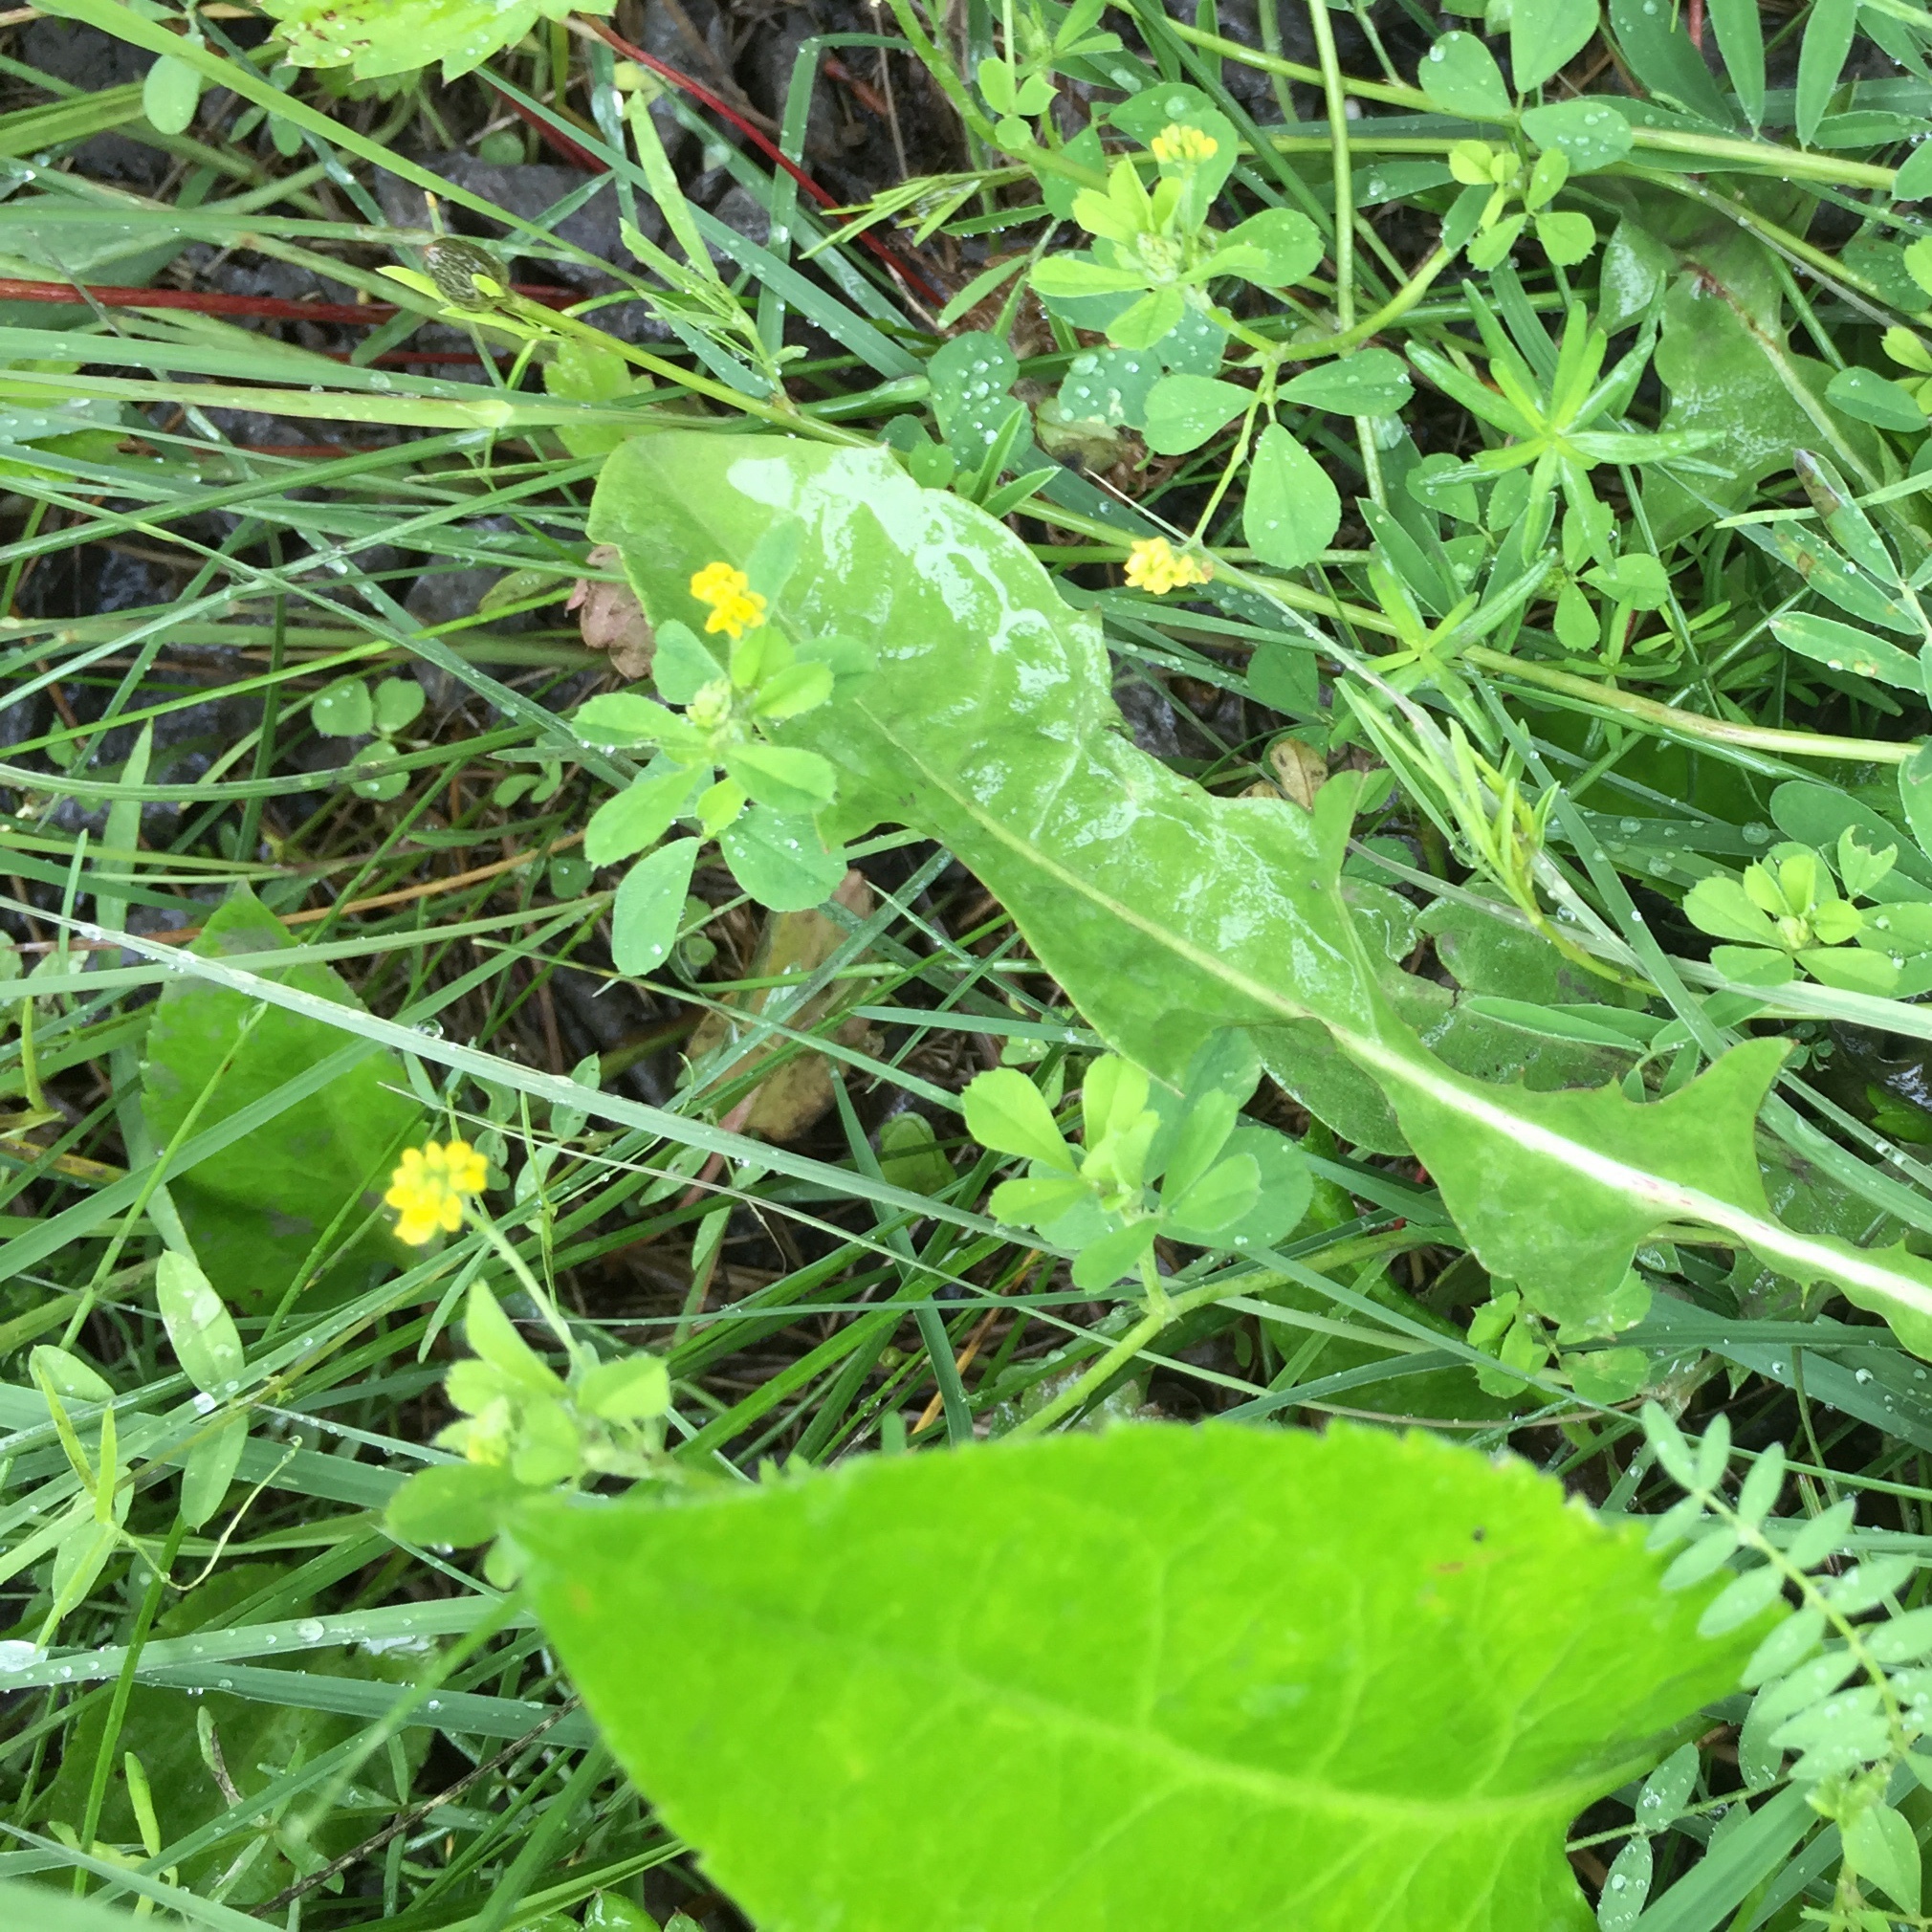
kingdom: Plantae
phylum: Tracheophyta
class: Magnoliopsida
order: Fabales
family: Fabaceae
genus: Medicago
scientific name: Medicago lupulina
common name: Black medick
